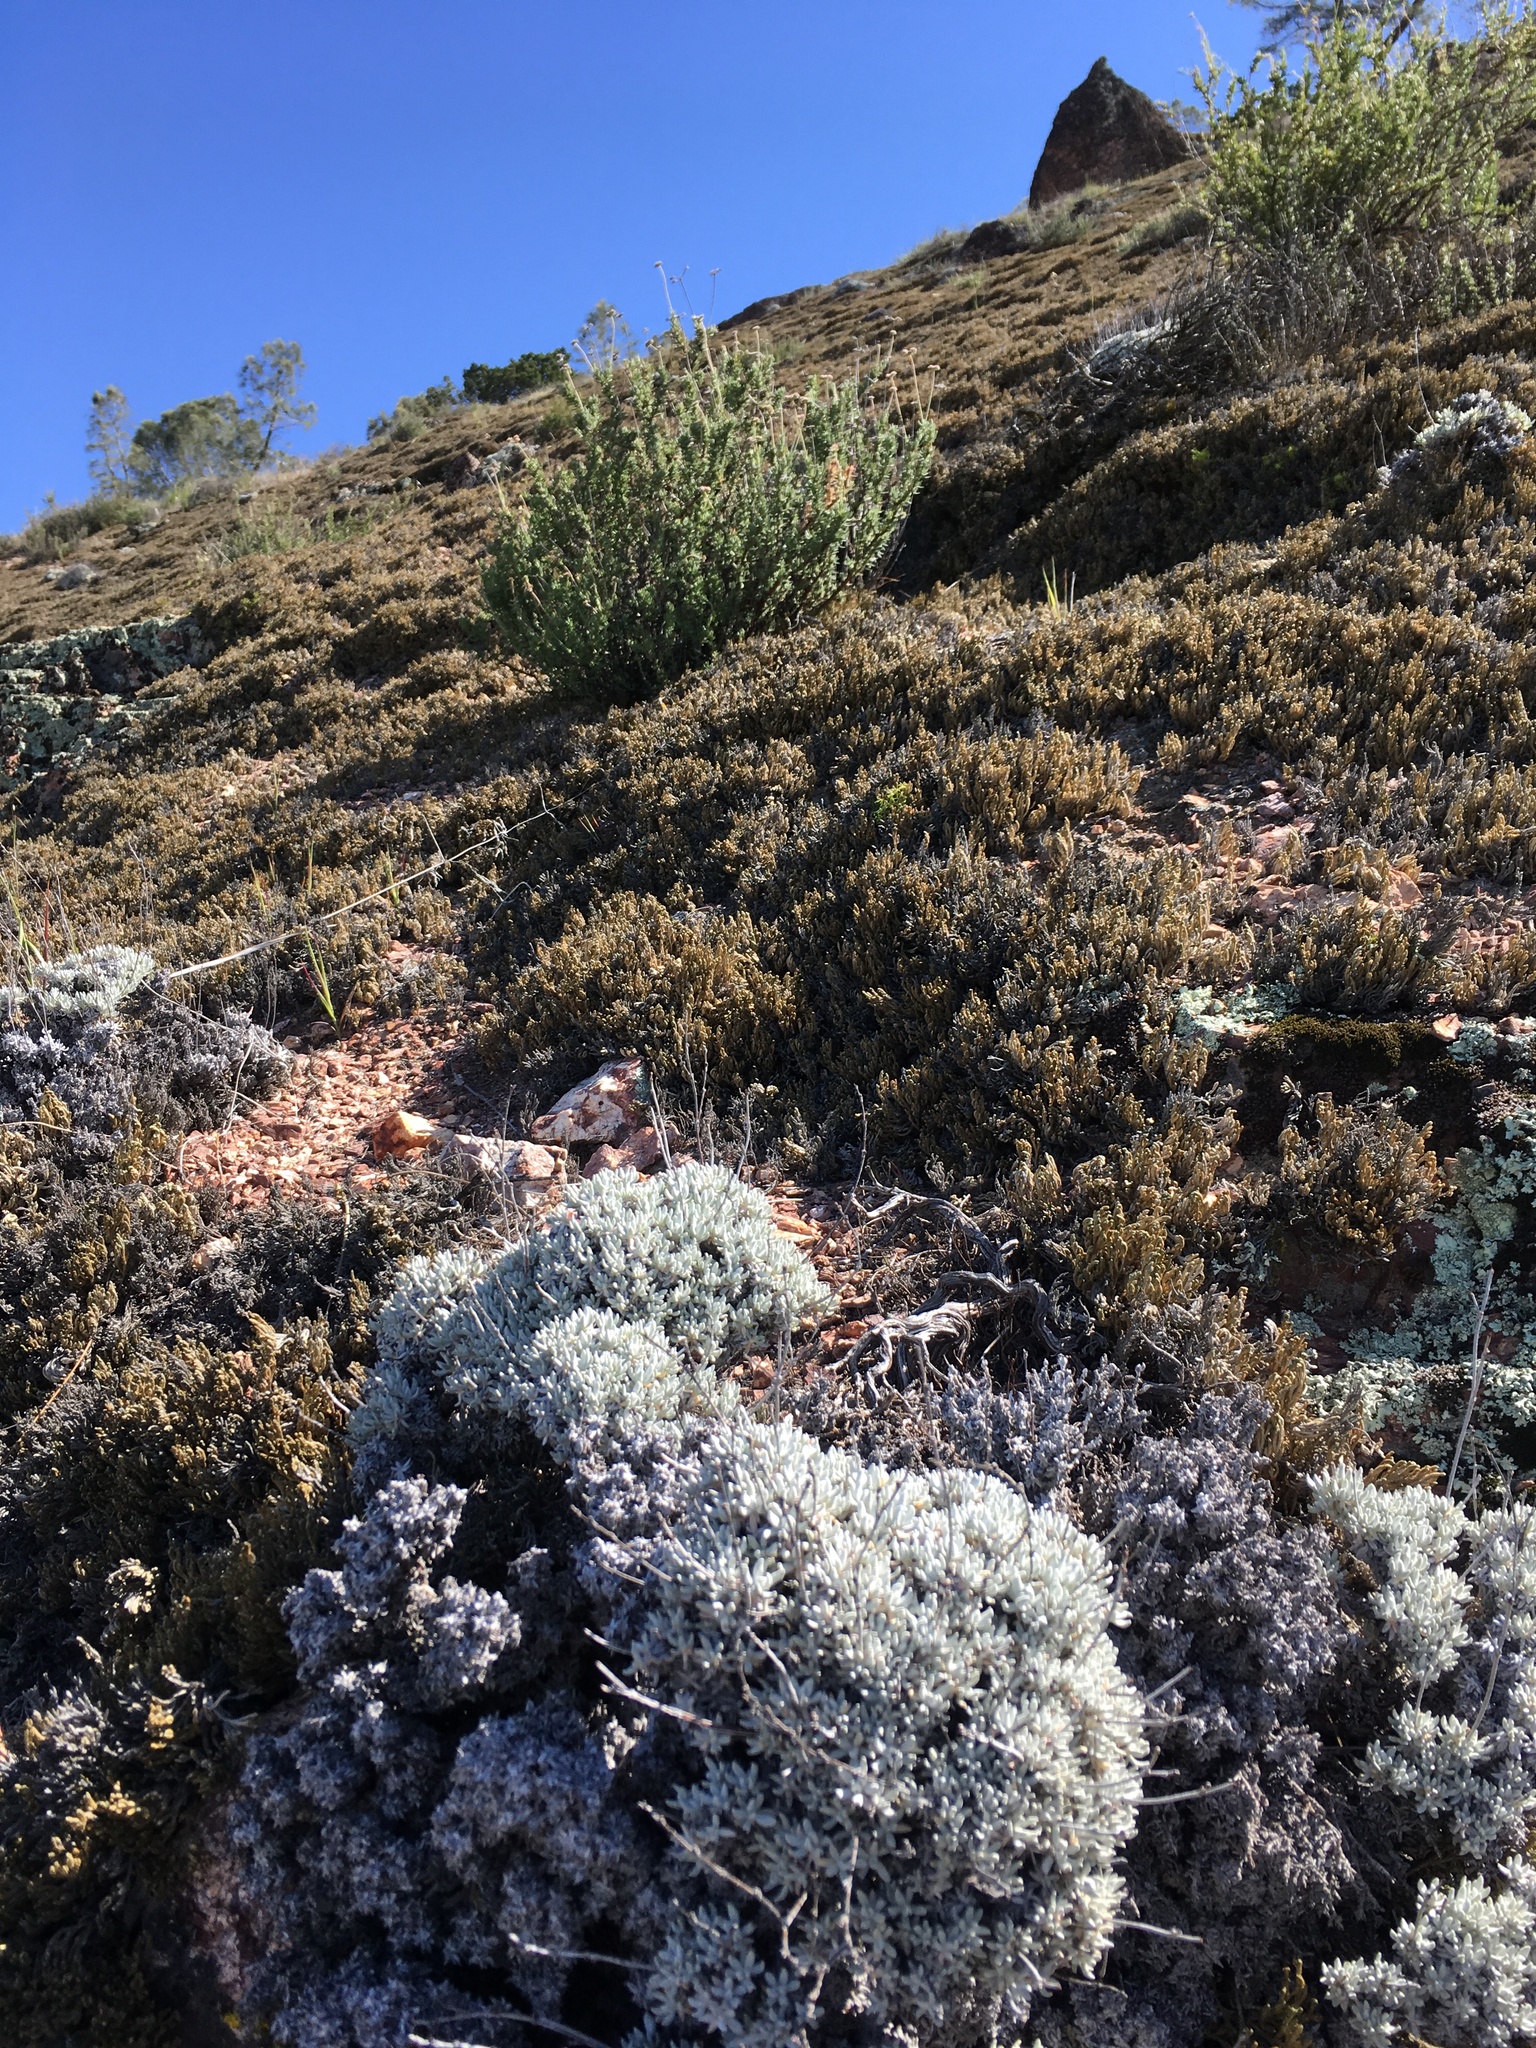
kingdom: Plantae
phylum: Tracheophyta
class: Magnoliopsida
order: Caryophyllales
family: Polygonaceae
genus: Eriogonum
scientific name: Eriogonum wrightii
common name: Bastard-sage
